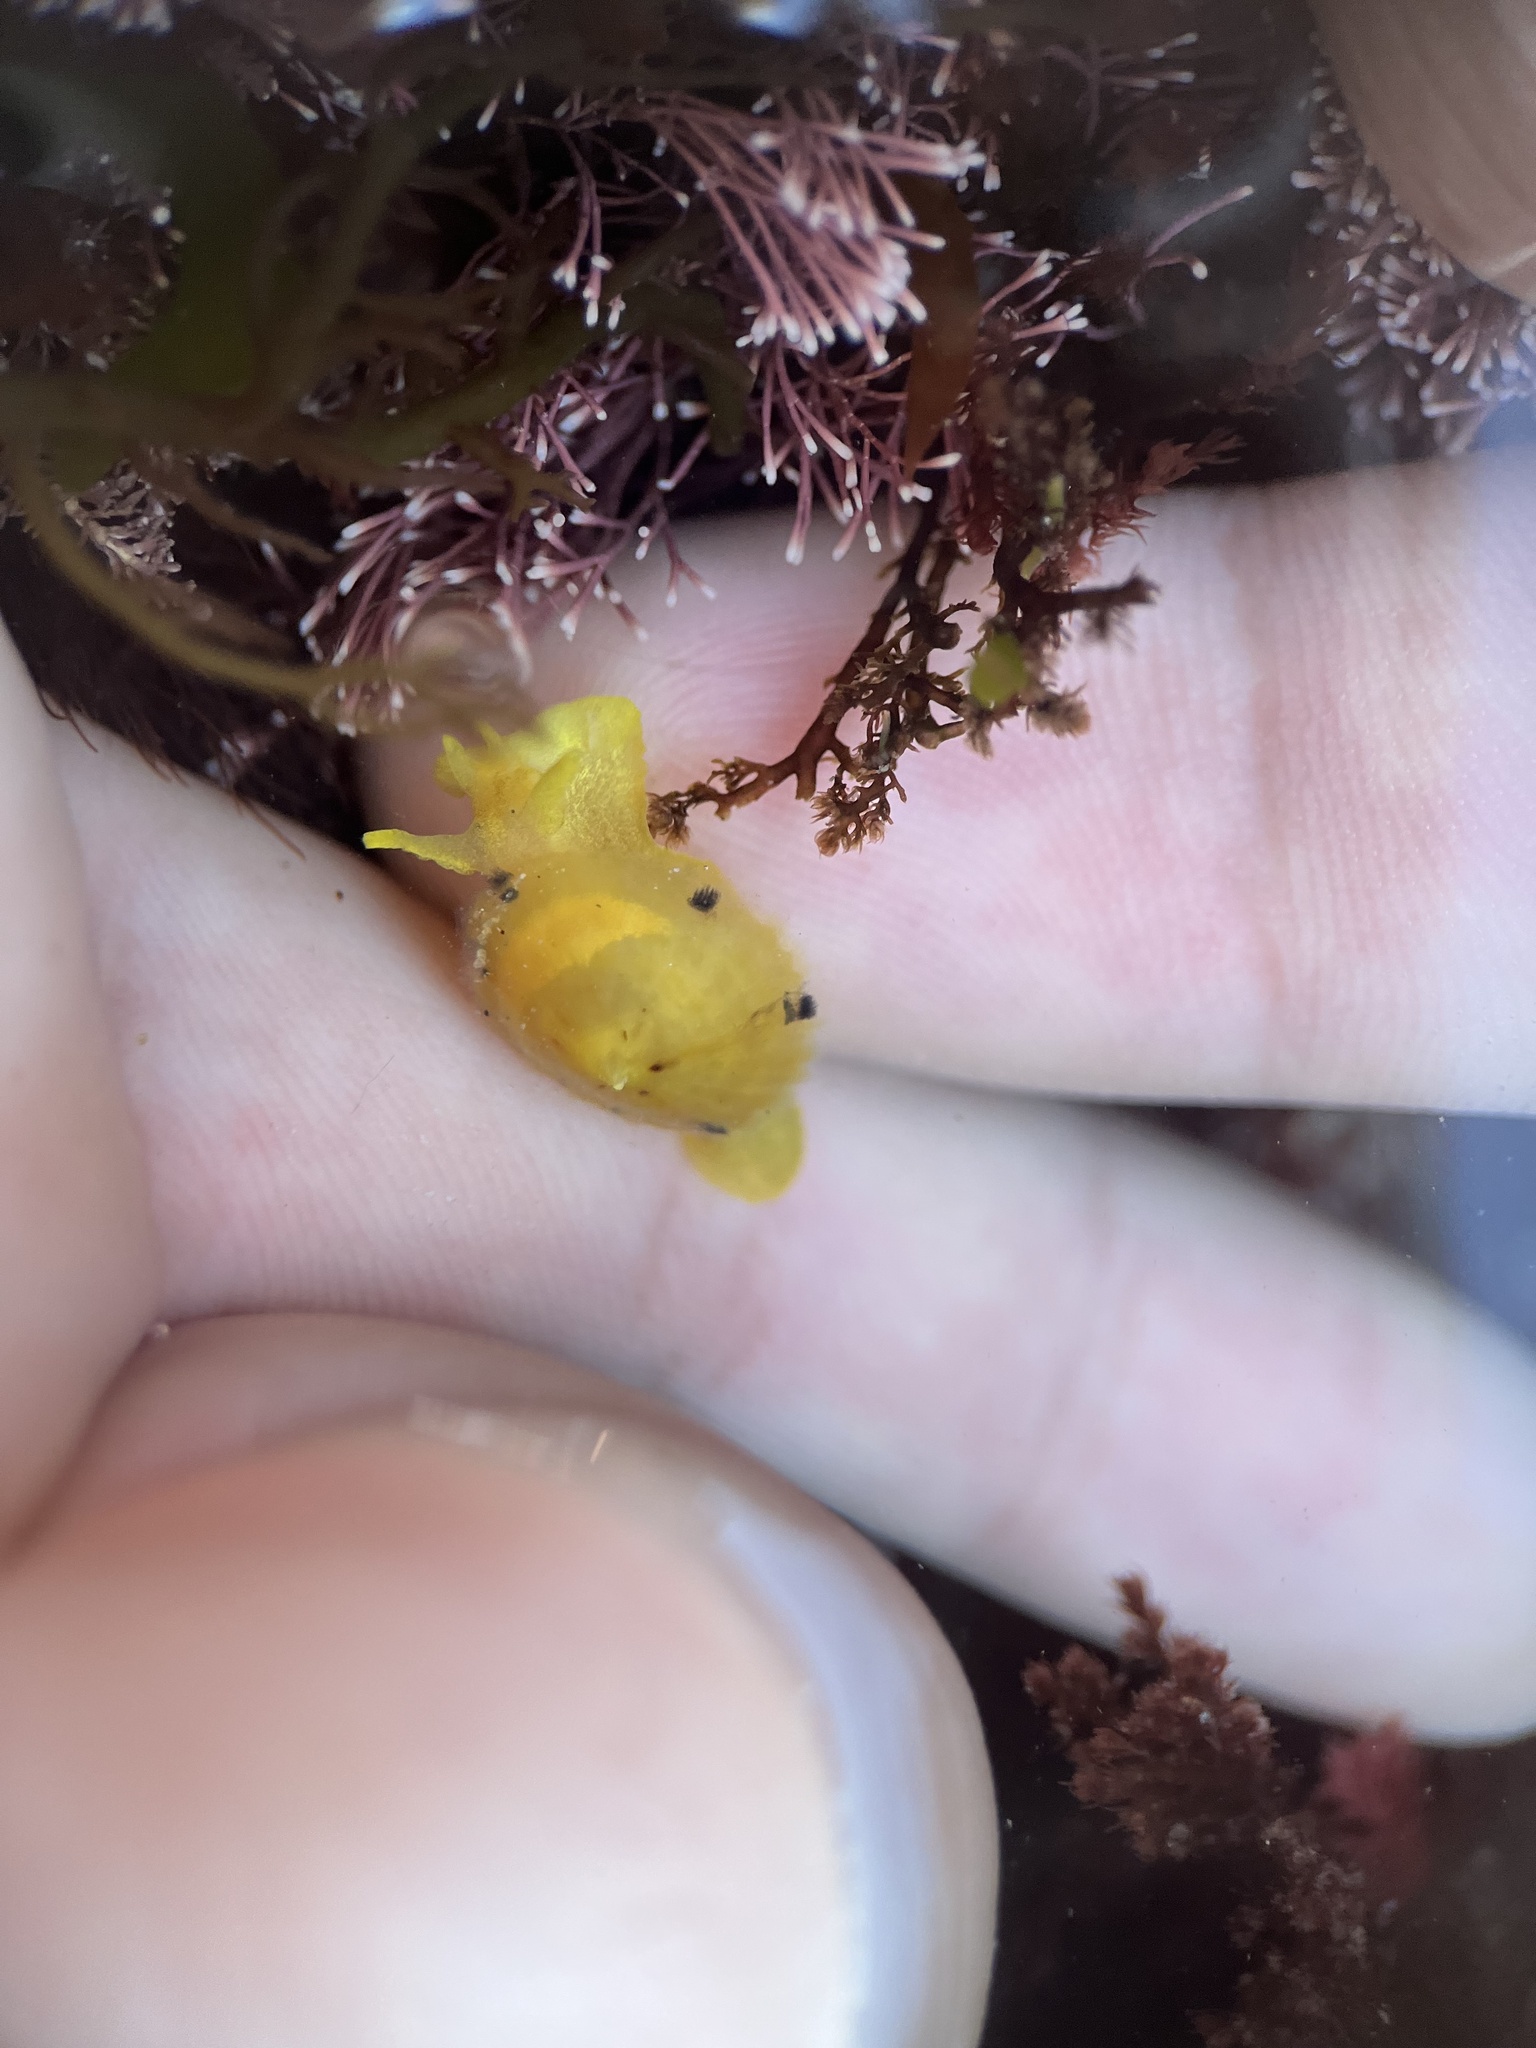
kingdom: Animalia
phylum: Mollusca
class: Gastropoda
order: Umbraculida
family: Tylodinidae
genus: Tylodina
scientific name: Tylodina fungina
